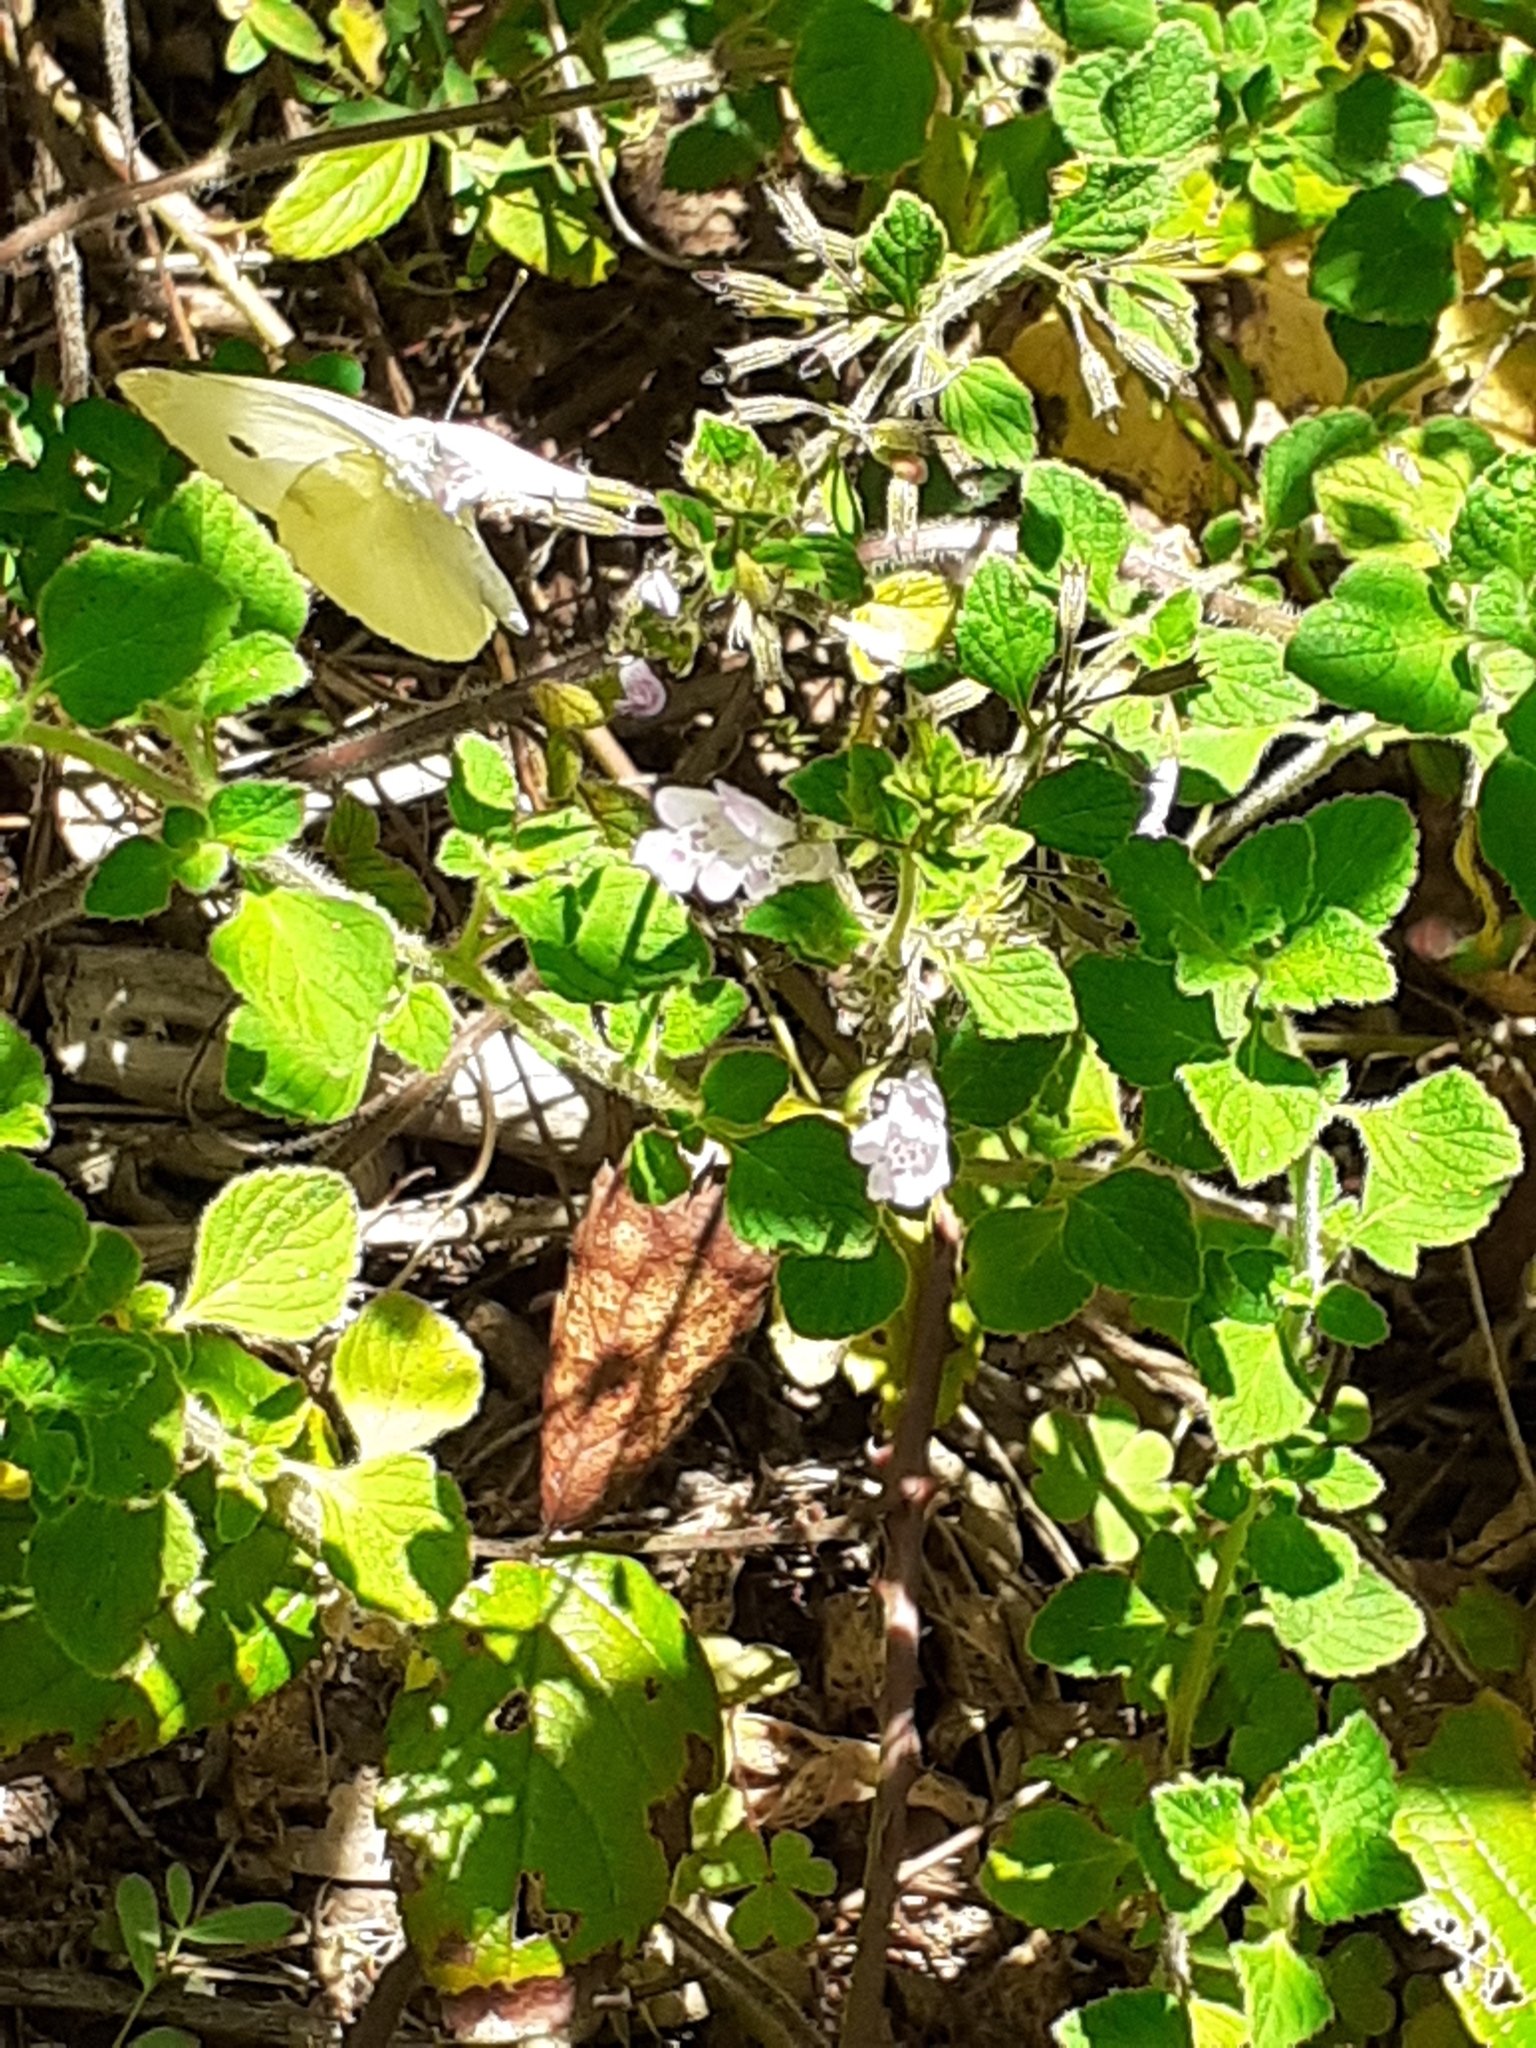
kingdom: Animalia
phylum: Arthropoda
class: Insecta
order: Lepidoptera
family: Pieridae
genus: Pieris
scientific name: Pieris rapae
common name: Small white
